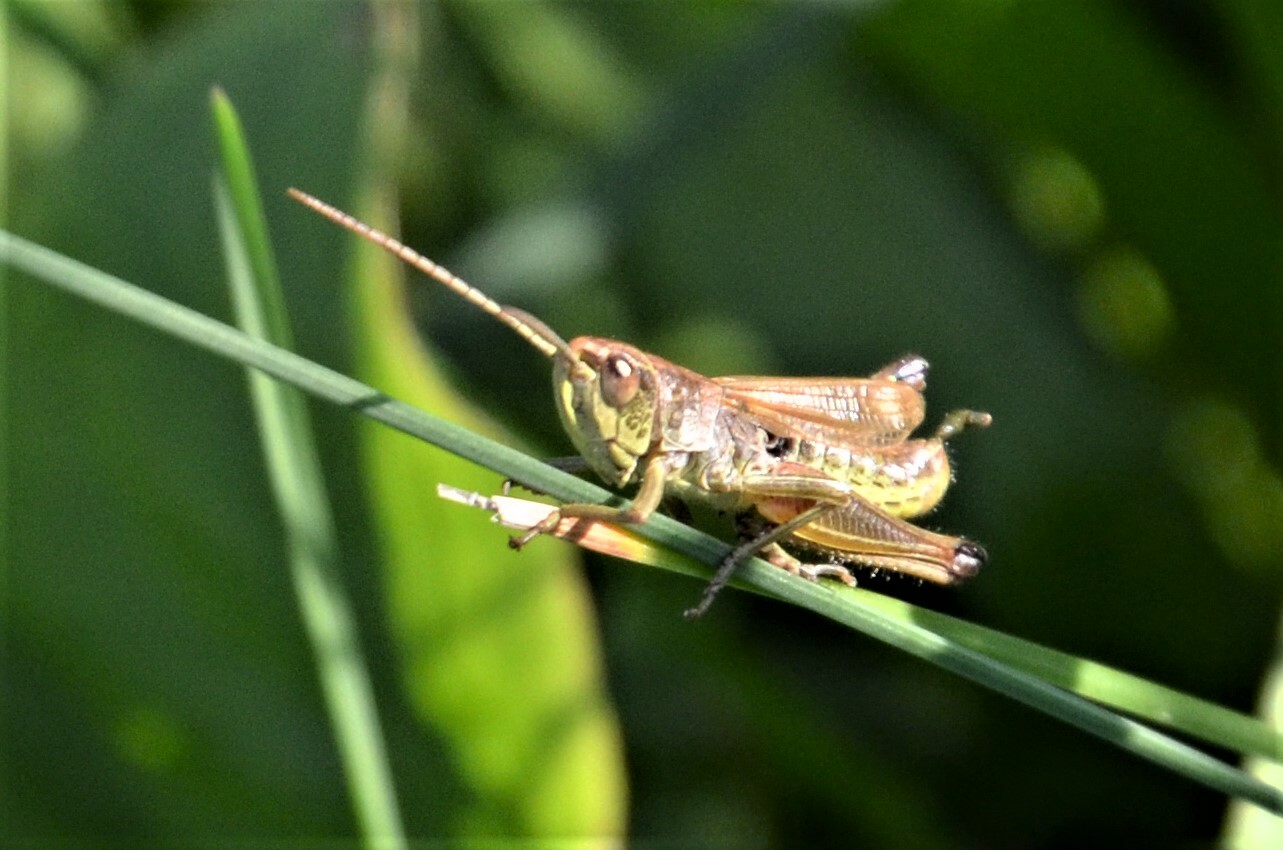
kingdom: Animalia
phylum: Arthropoda
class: Insecta
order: Orthoptera
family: Acrididae
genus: Pseudochorthippus
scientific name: Pseudochorthippus parallelus
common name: Meadow grasshopper
